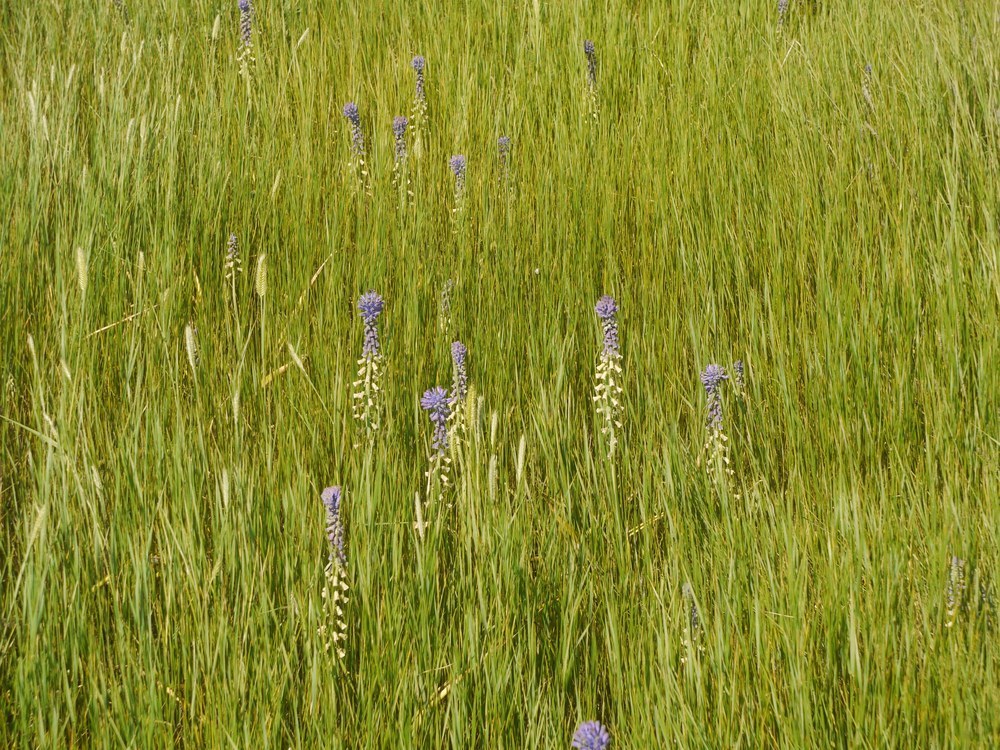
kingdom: Plantae
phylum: Tracheophyta
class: Liliopsida
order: Asparagales
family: Asparagaceae
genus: Muscari
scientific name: Muscari tenuiflorum
